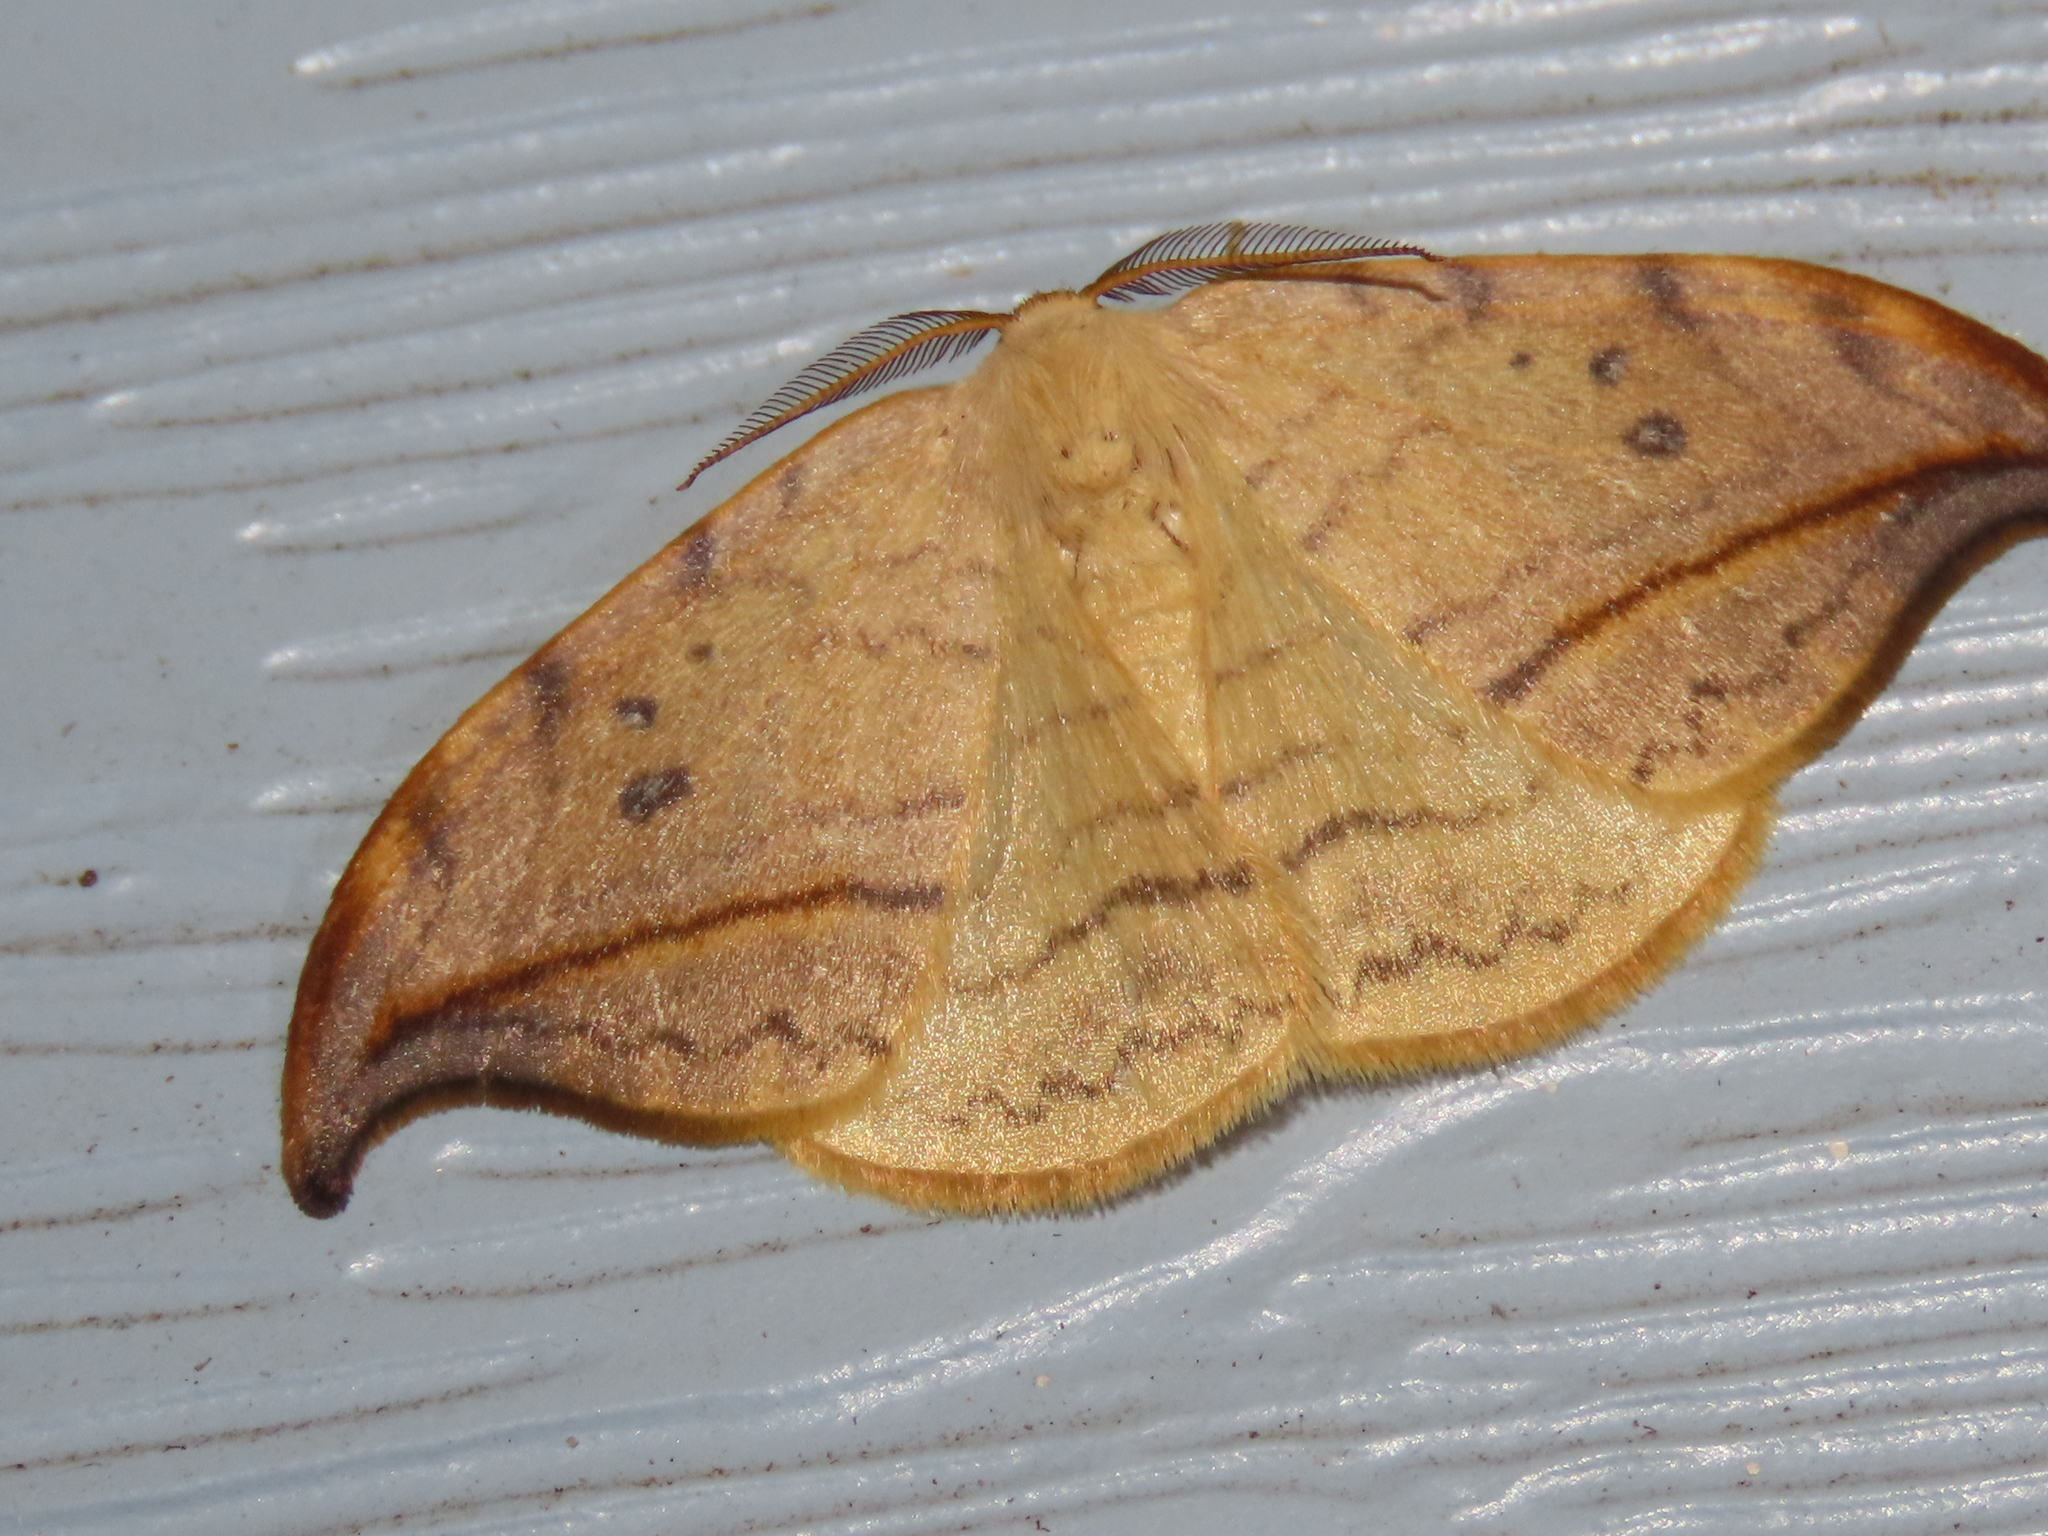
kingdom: Animalia
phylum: Arthropoda
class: Insecta
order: Lepidoptera
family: Drepanidae
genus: Drepana
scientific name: Drepana arcuata
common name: Arched hooktip moth
